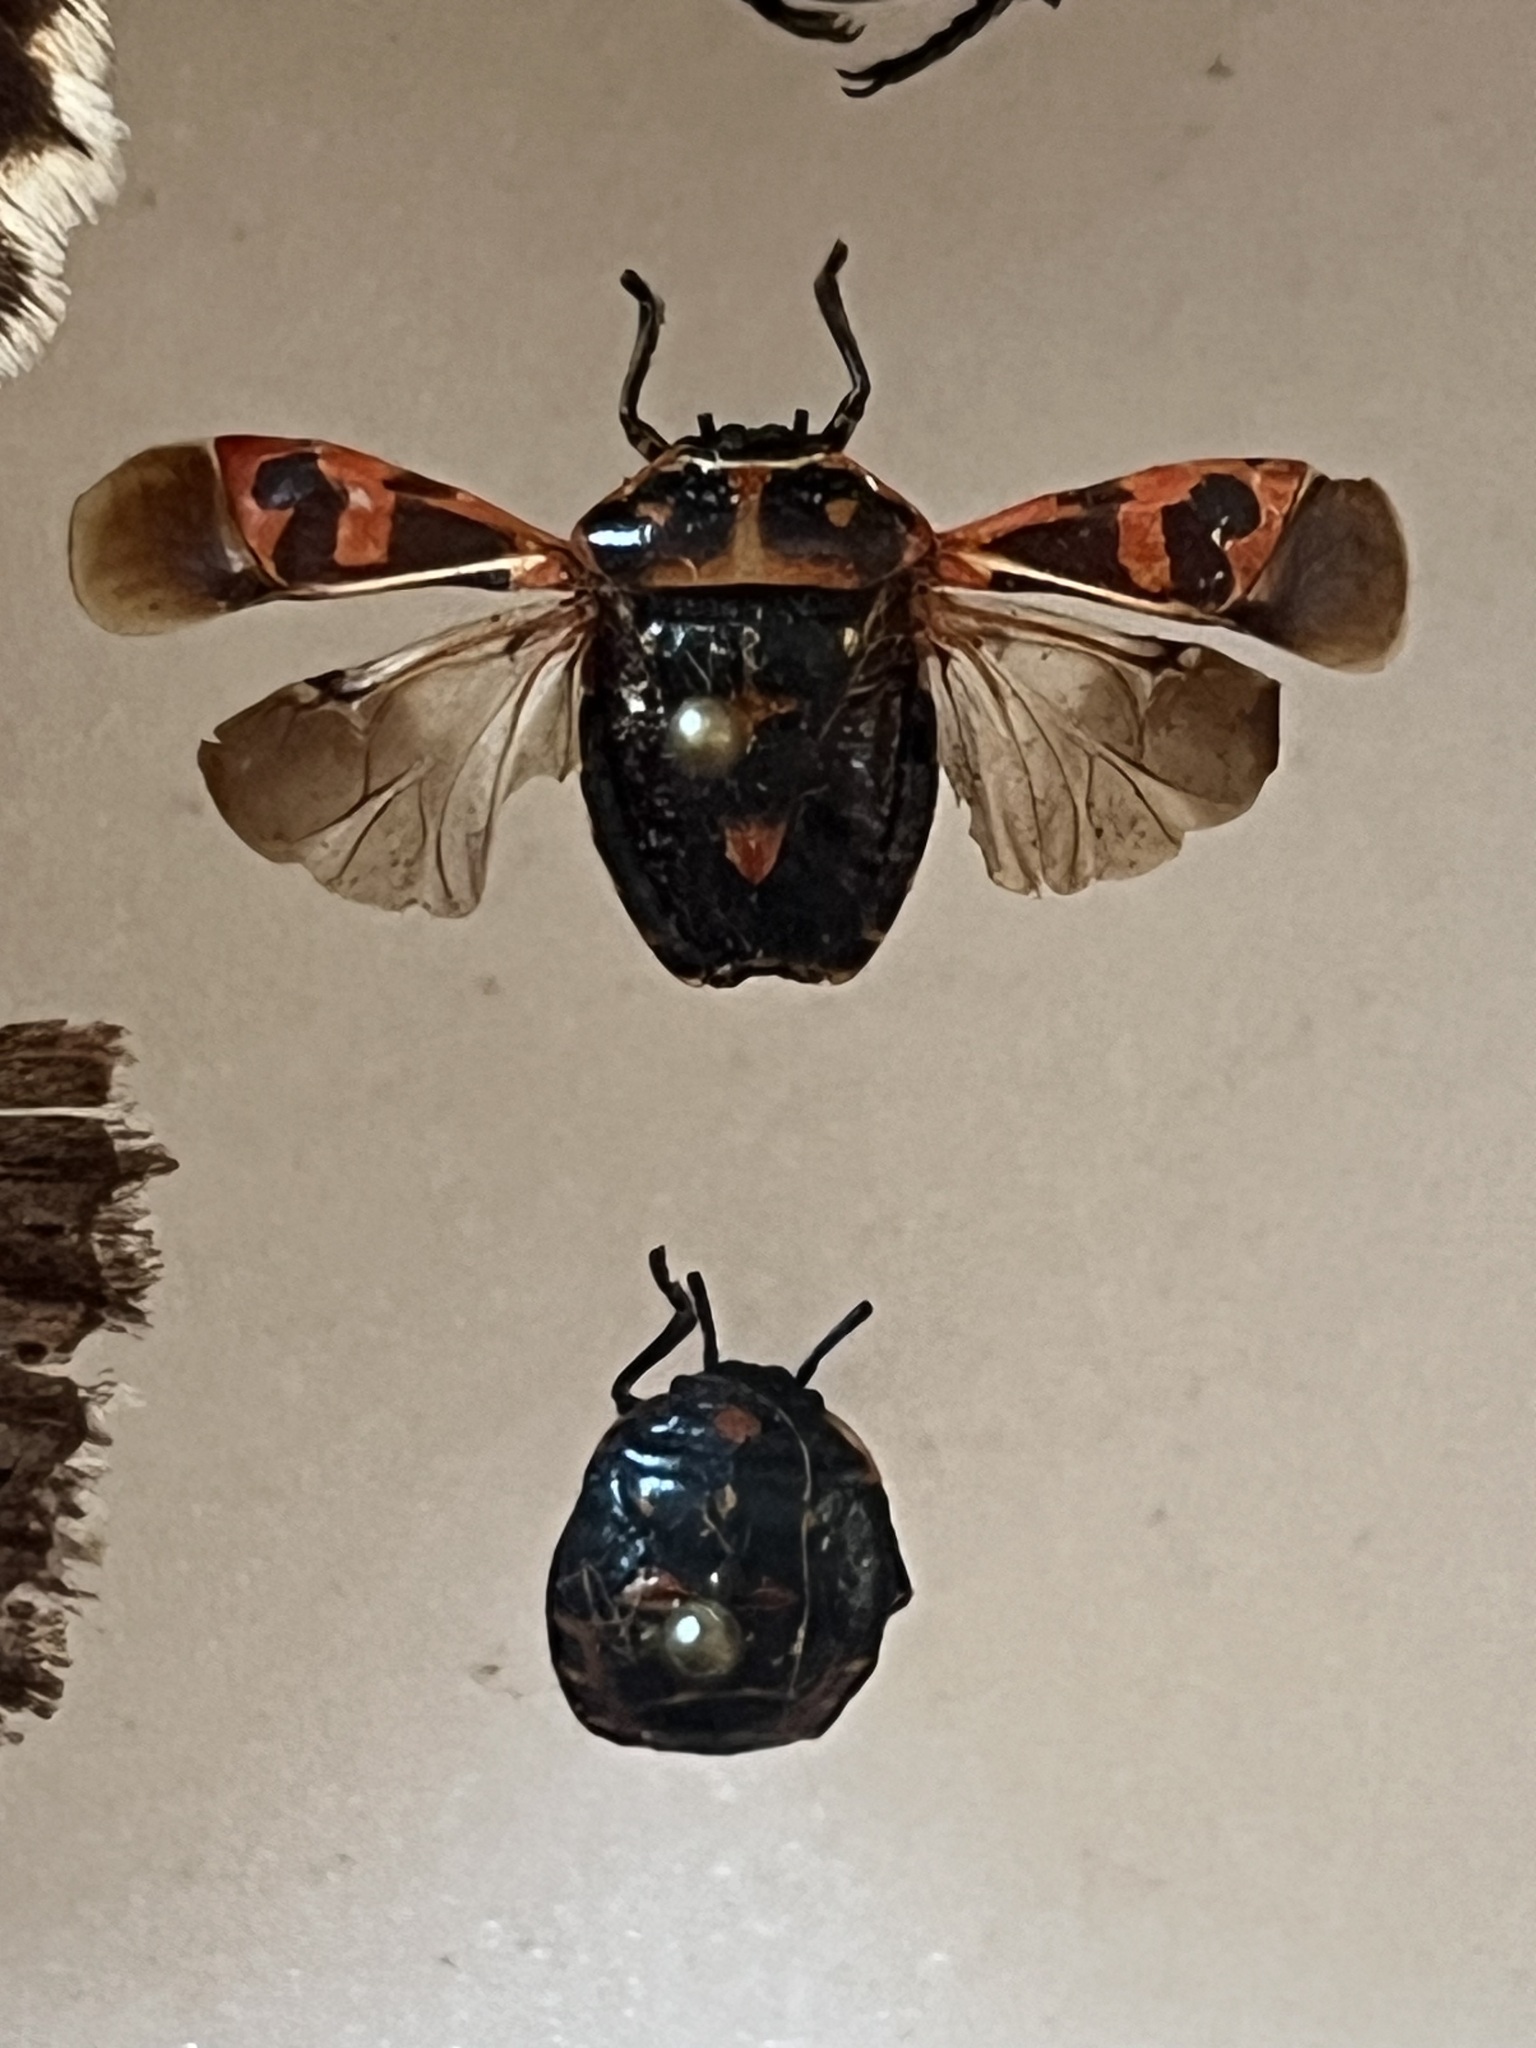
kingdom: Animalia
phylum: Arthropoda
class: Insecta
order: Hemiptera
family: Pentatomidae
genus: Murgantia
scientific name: Murgantia histrionica
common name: Harlequin bug
